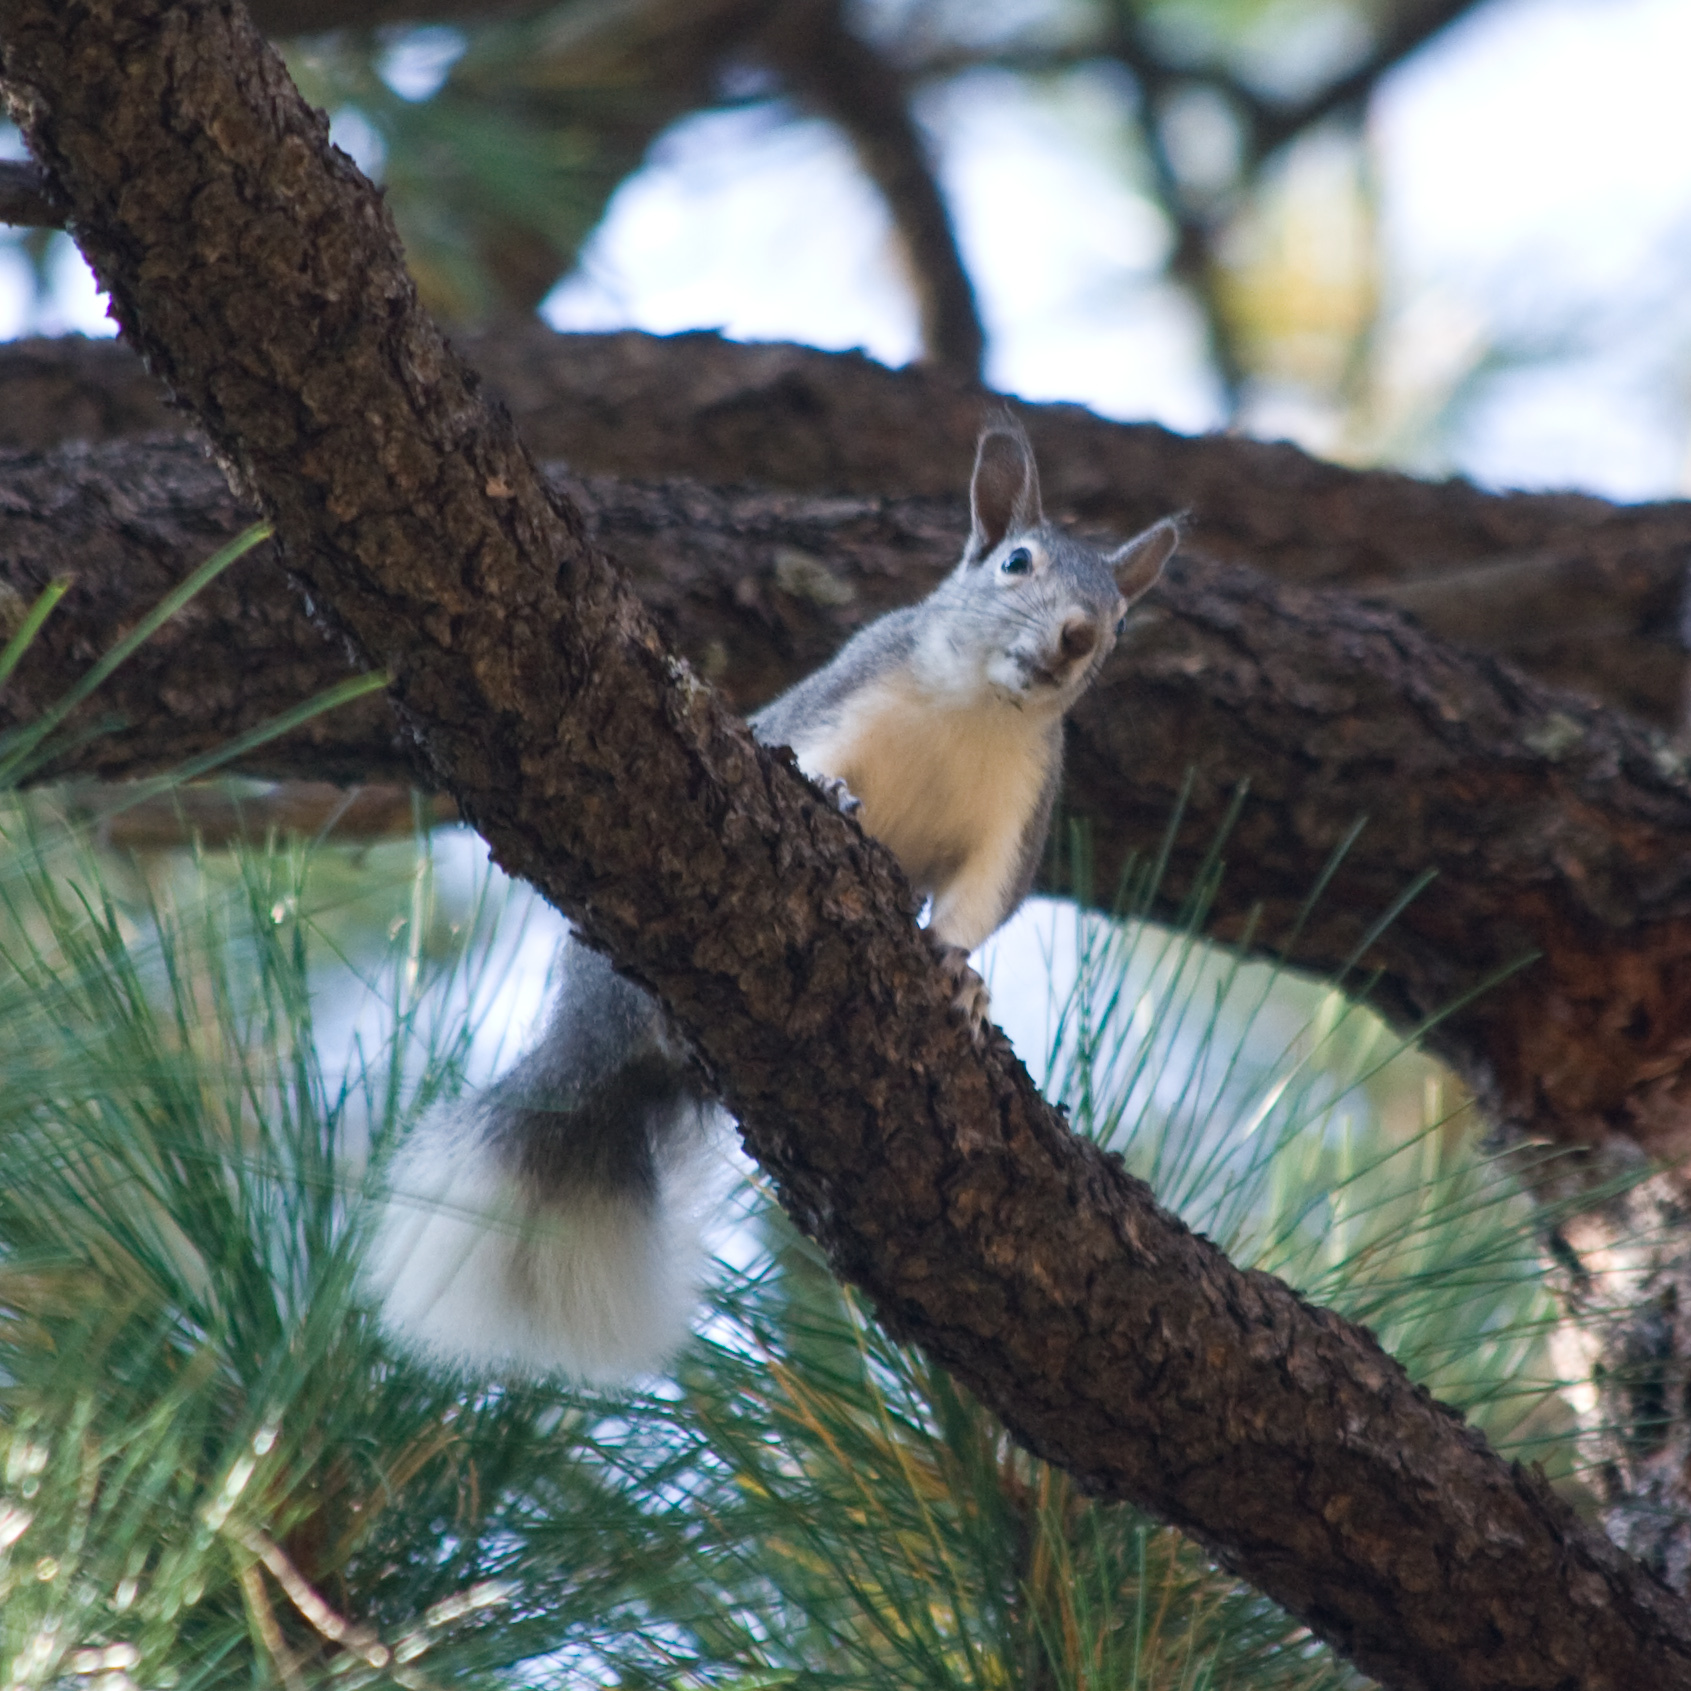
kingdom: Animalia
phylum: Chordata
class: Mammalia
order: Rodentia
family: Sciuridae
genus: Sciurus
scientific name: Sciurus aberti
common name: Abert's squirrel
